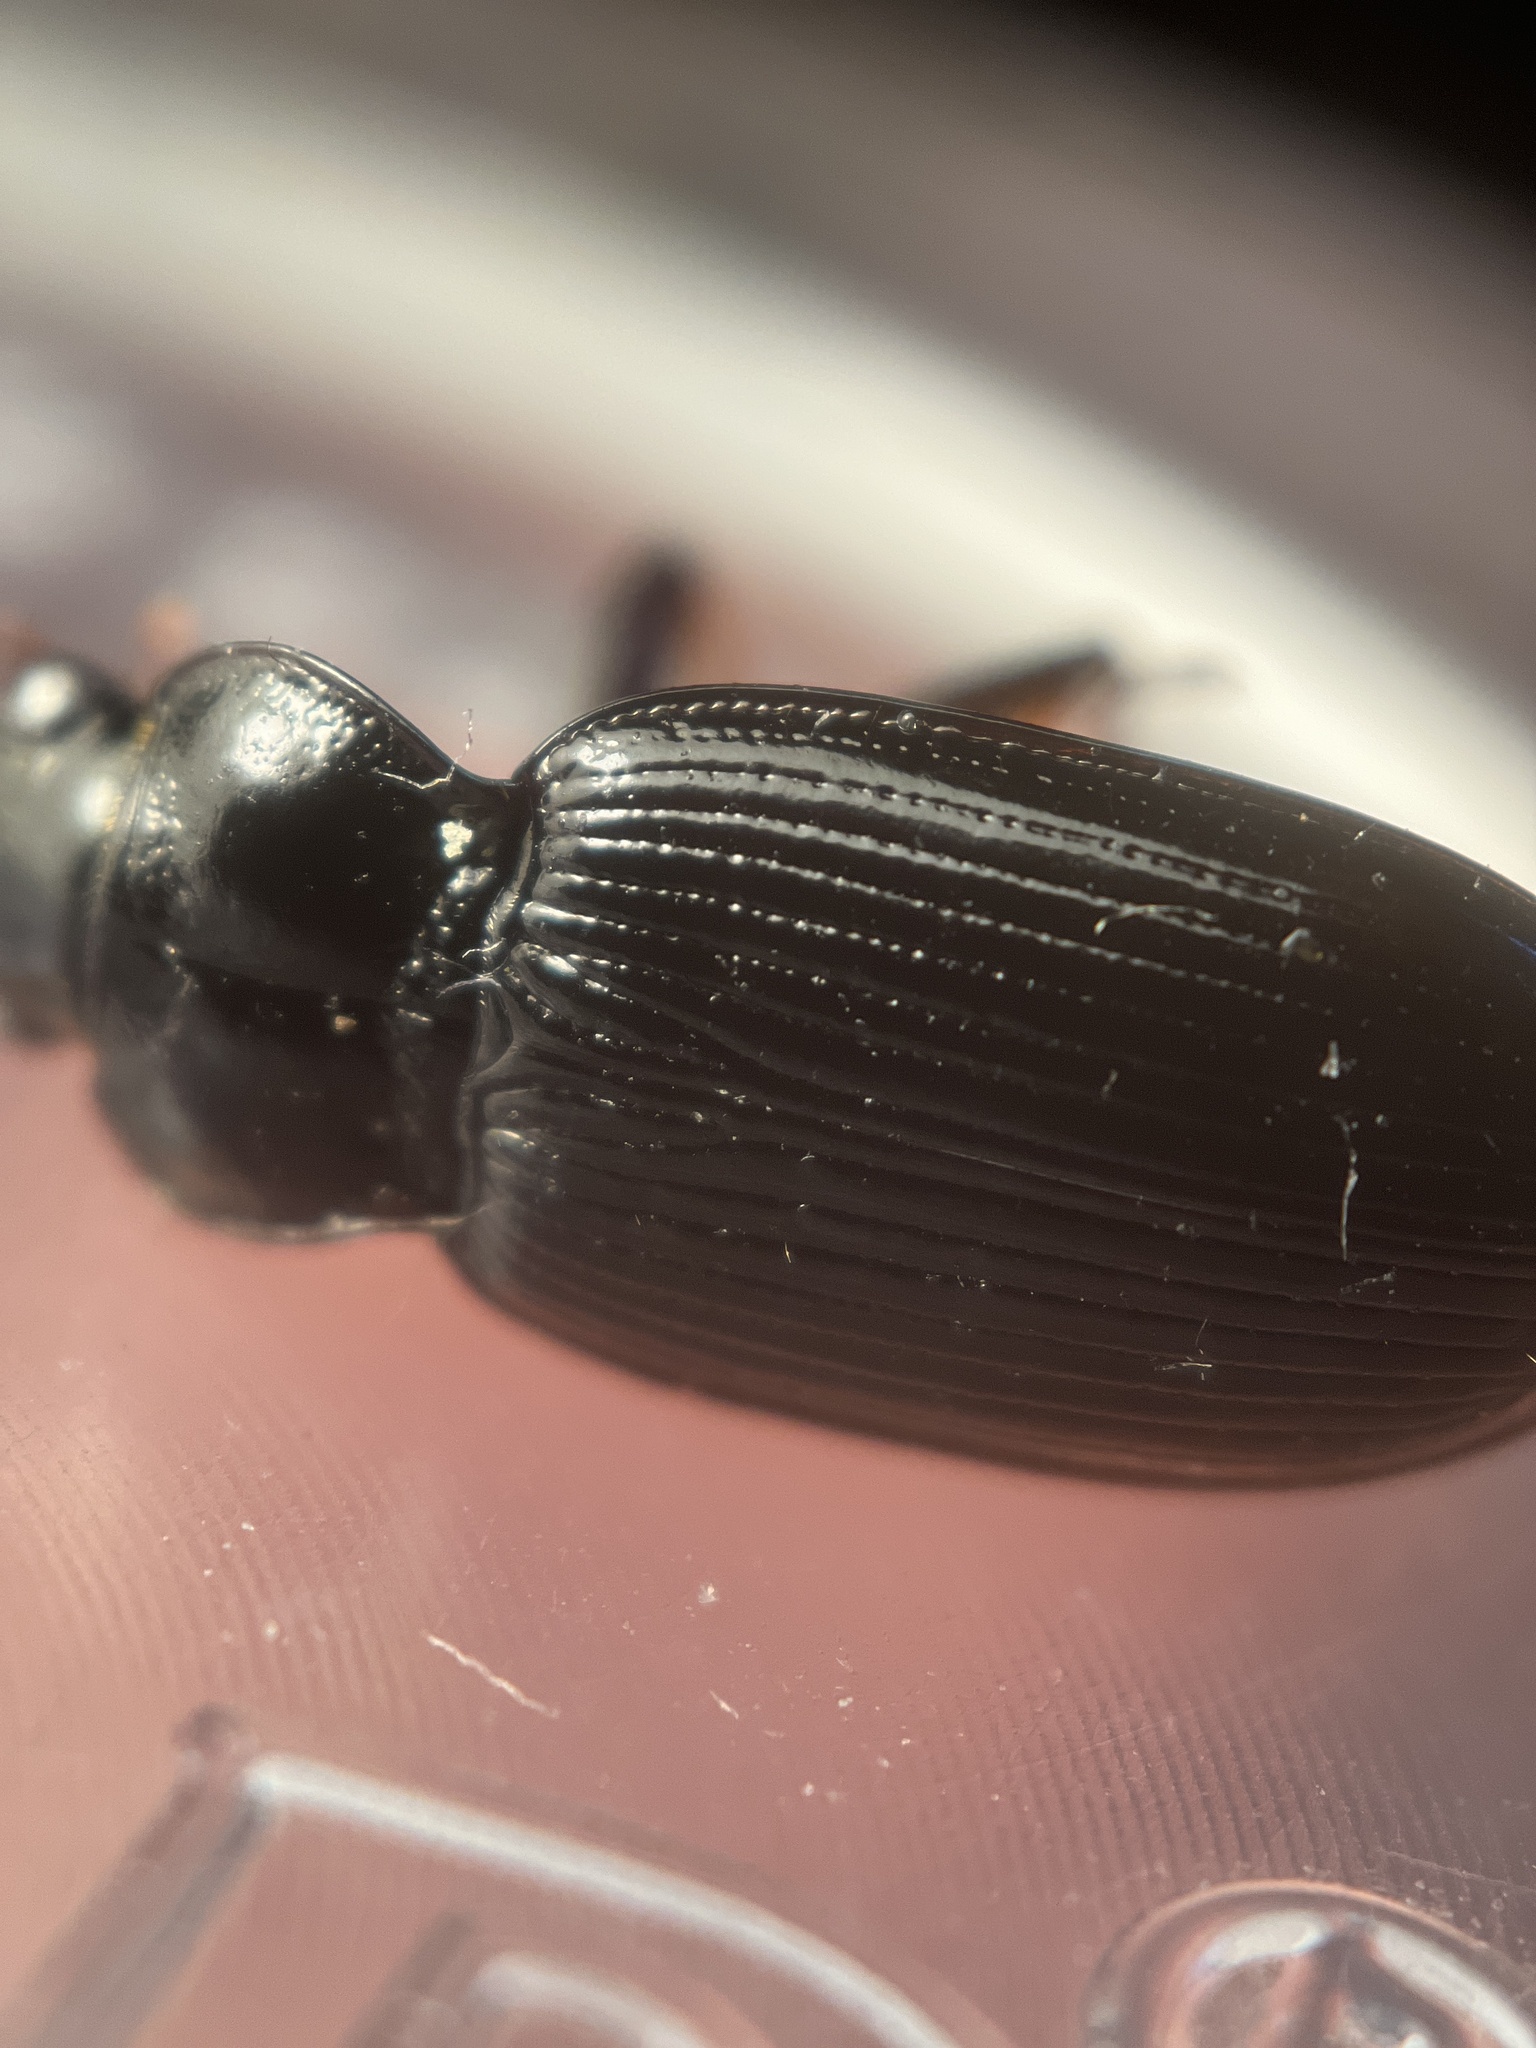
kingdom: Animalia
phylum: Arthropoda
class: Insecta
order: Coleoptera
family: Carabidae
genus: Nebria
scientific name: Nebria brevicollis
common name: Short-necked gazelle beetle
